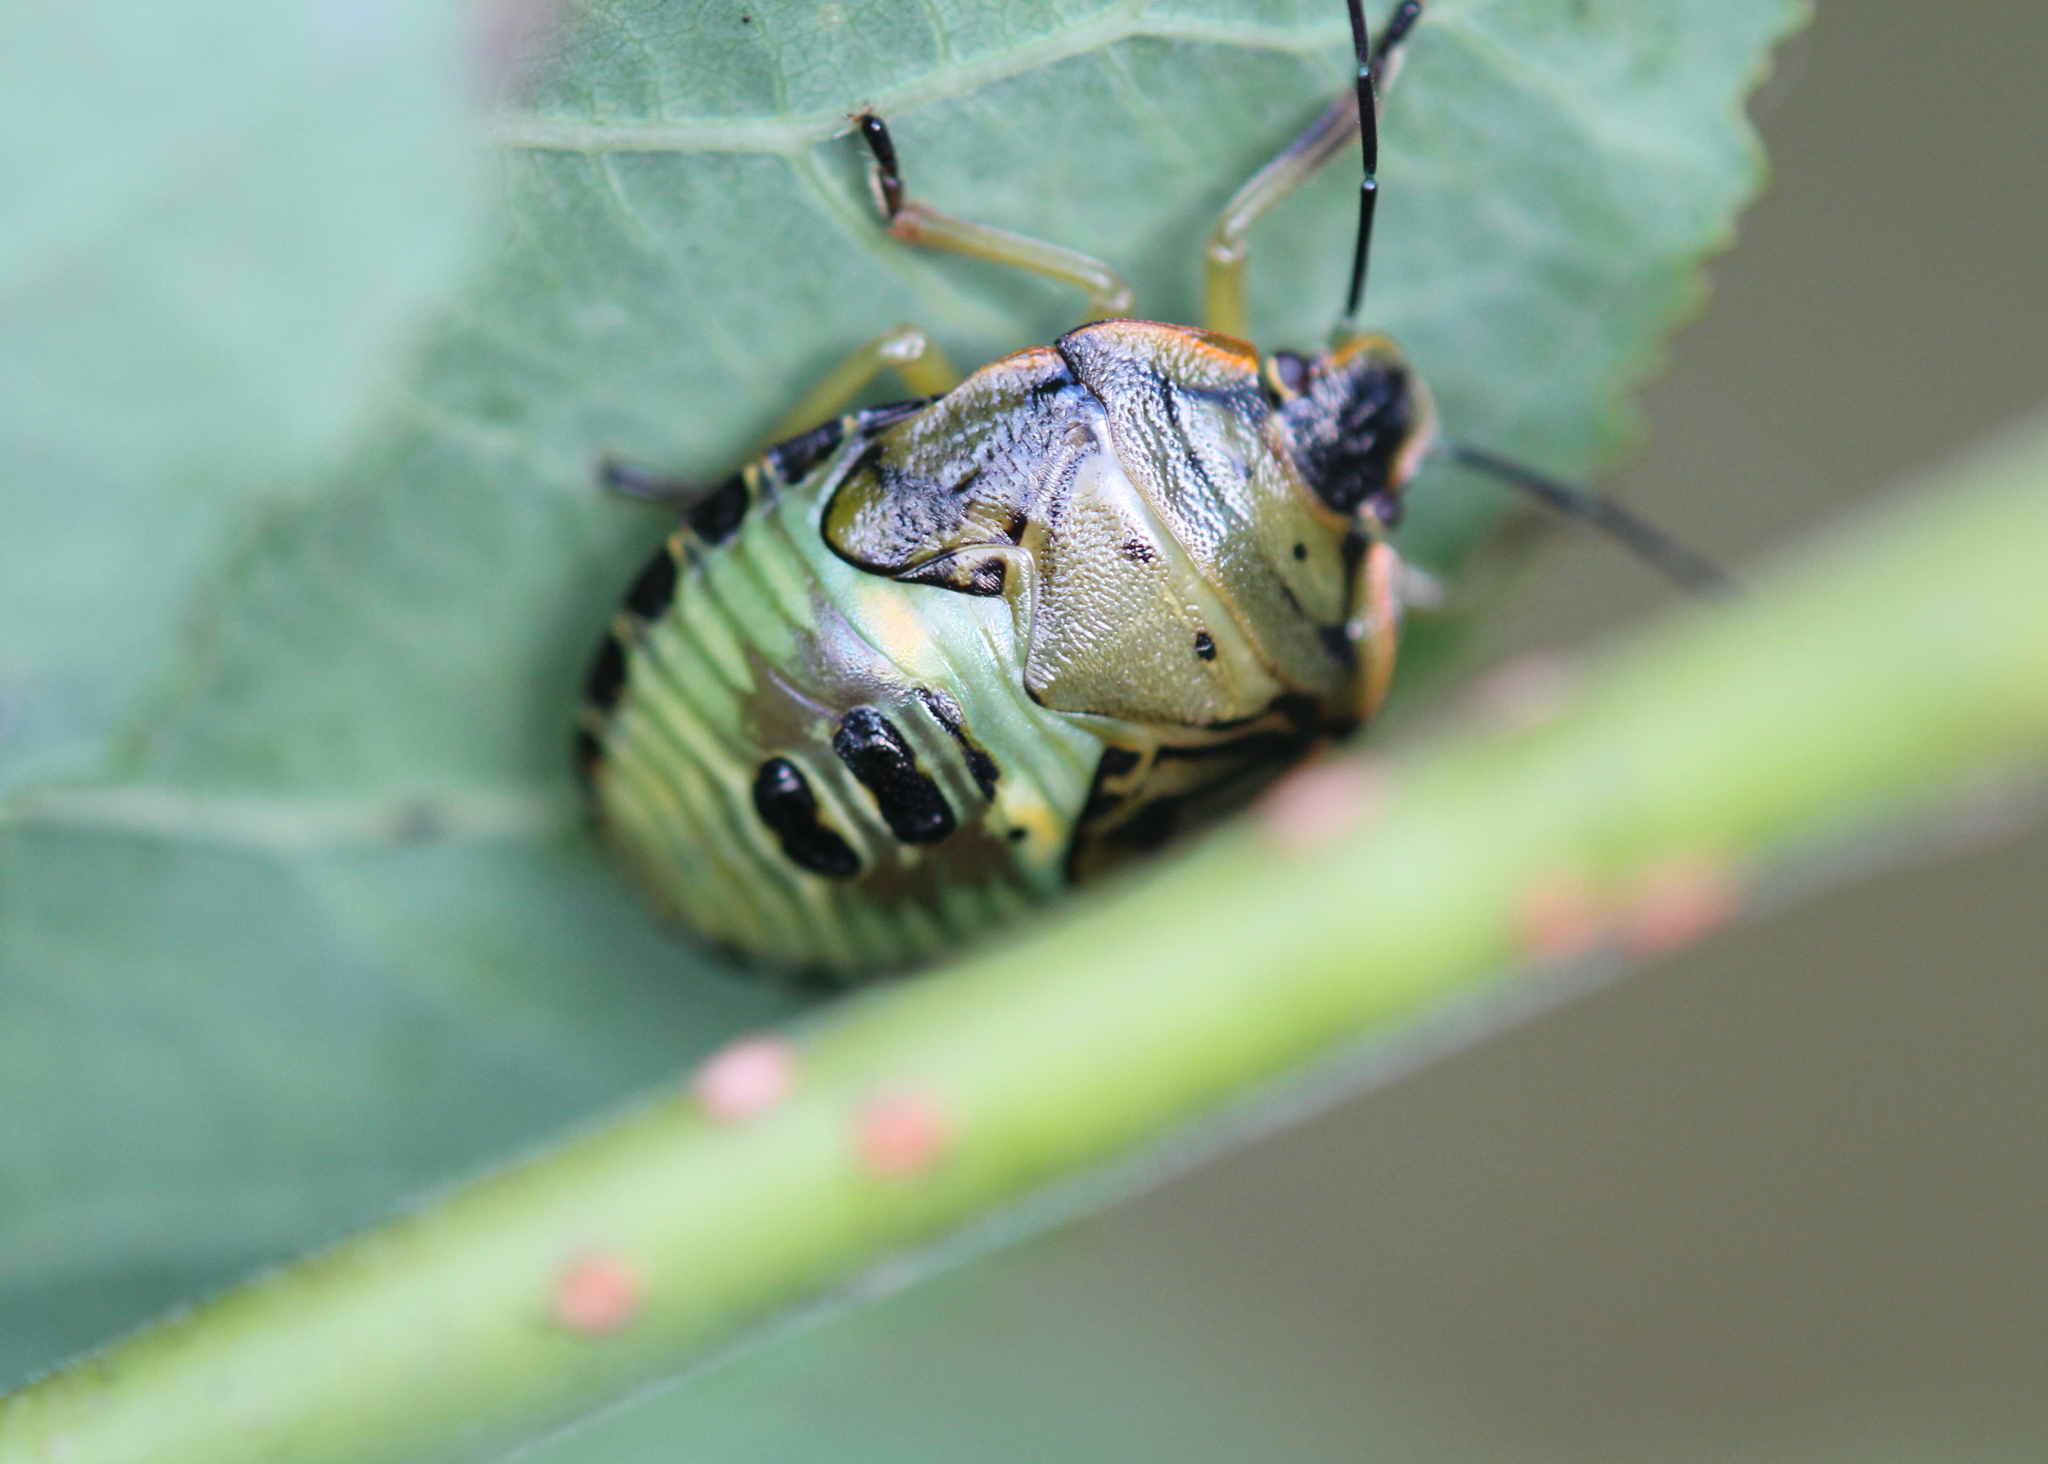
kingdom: Animalia
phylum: Arthropoda
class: Insecta
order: Hemiptera
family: Pentatomidae
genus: Chinavia
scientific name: Chinavia hilaris
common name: Green stink bug
